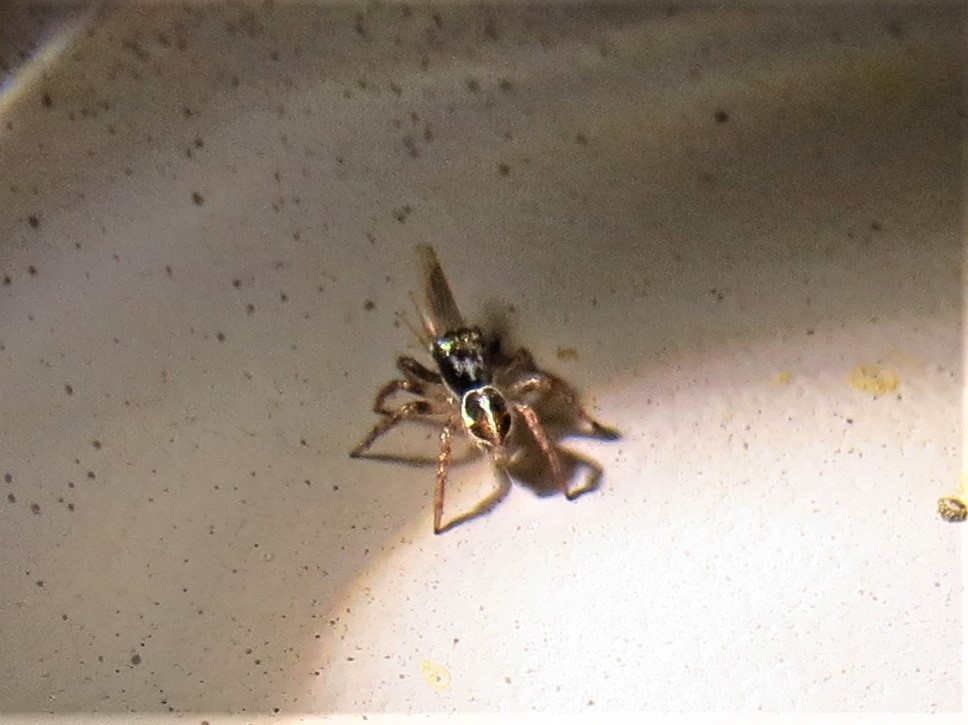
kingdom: Animalia
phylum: Arthropoda
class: Arachnida
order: Araneae
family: Salticidae
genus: Anasaitis
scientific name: Anasaitis canosa
